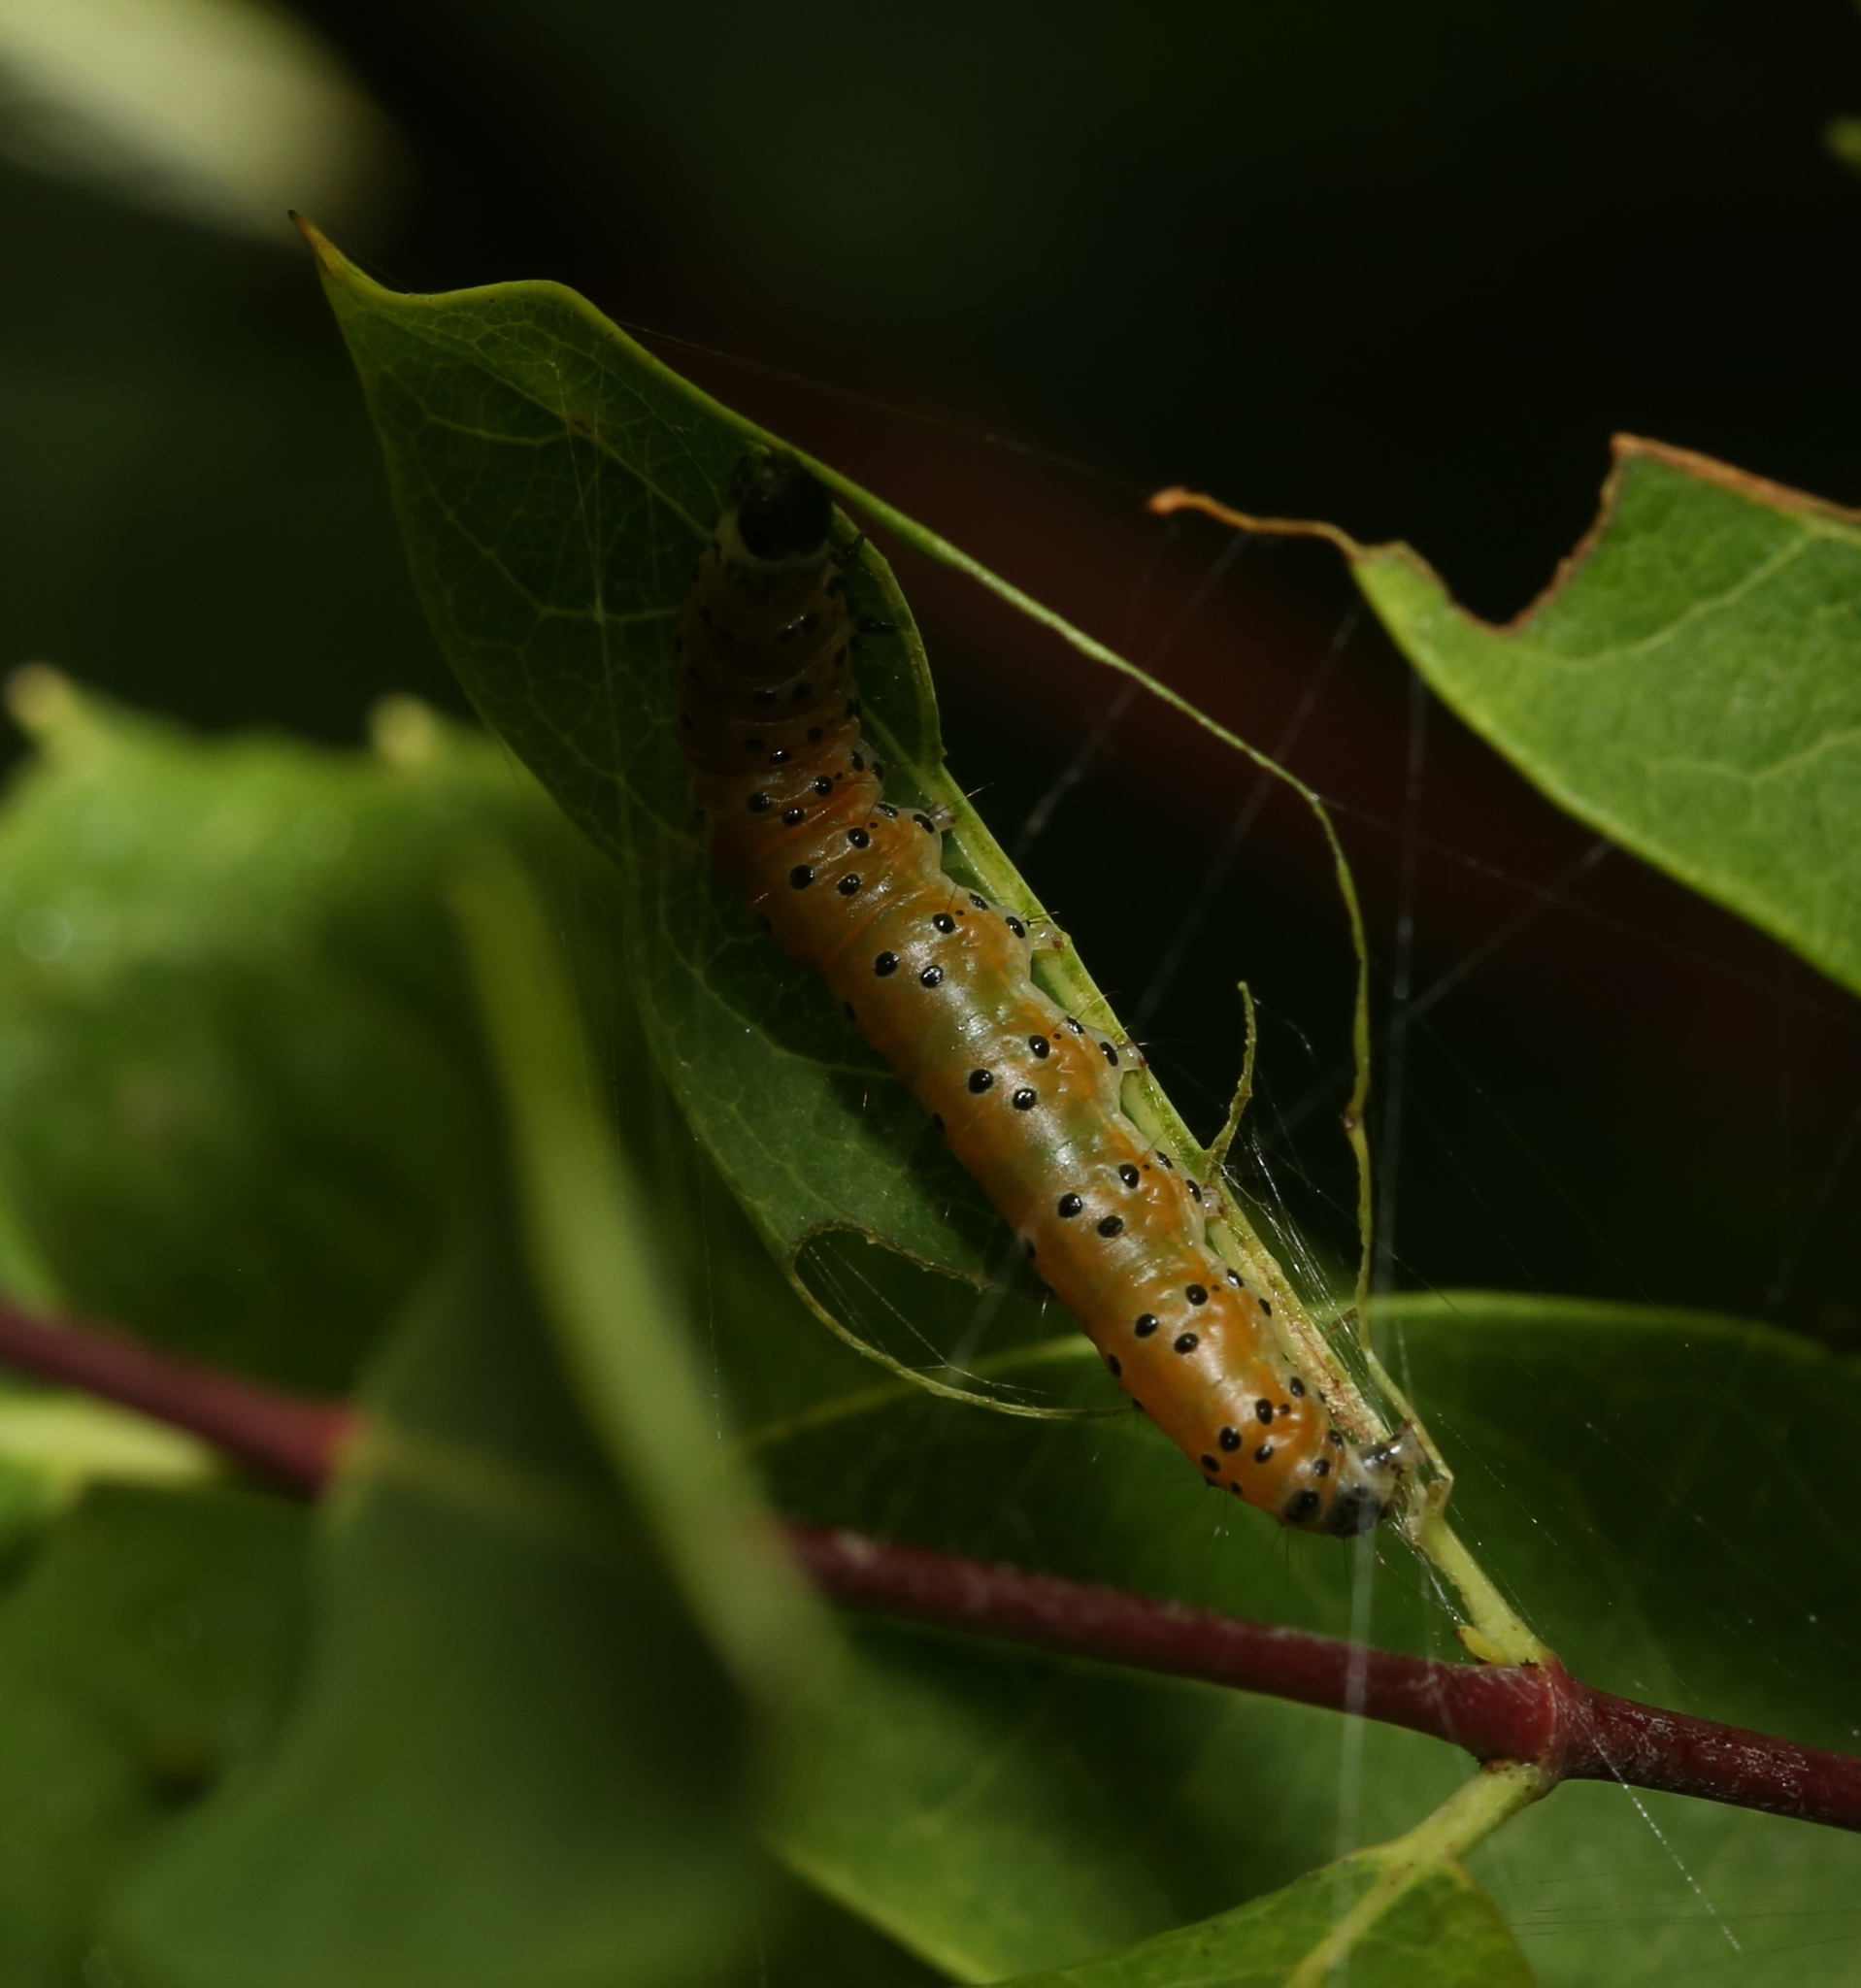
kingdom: Animalia
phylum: Arthropoda
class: Insecta
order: Lepidoptera
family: Crambidae
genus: Saucrobotys
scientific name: Saucrobotys futilalis
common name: Dogbane saucrobotys moth
